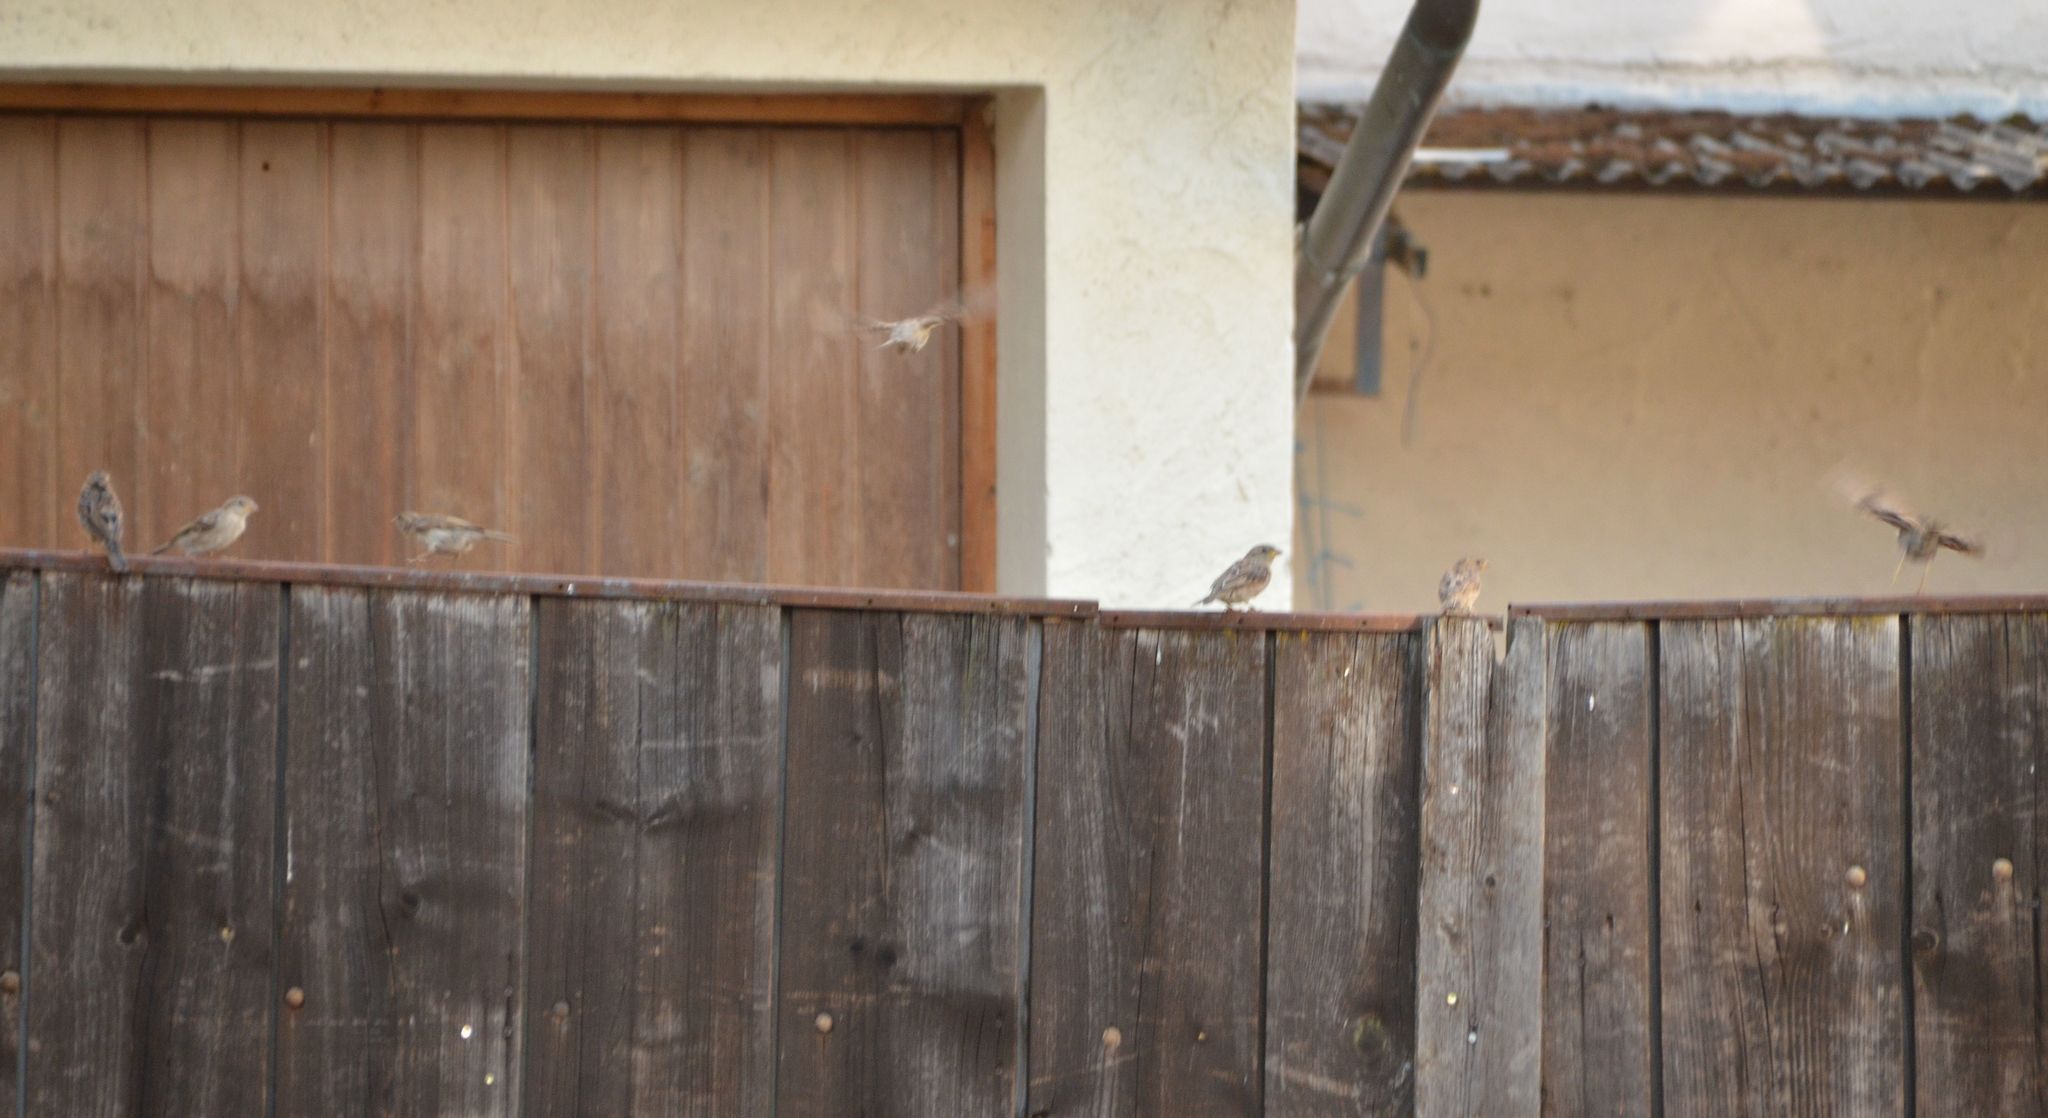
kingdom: Animalia
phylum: Chordata
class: Aves
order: Passeriformes
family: Passeridae
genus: Passer
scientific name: Passer domesticus
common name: House sparrow
